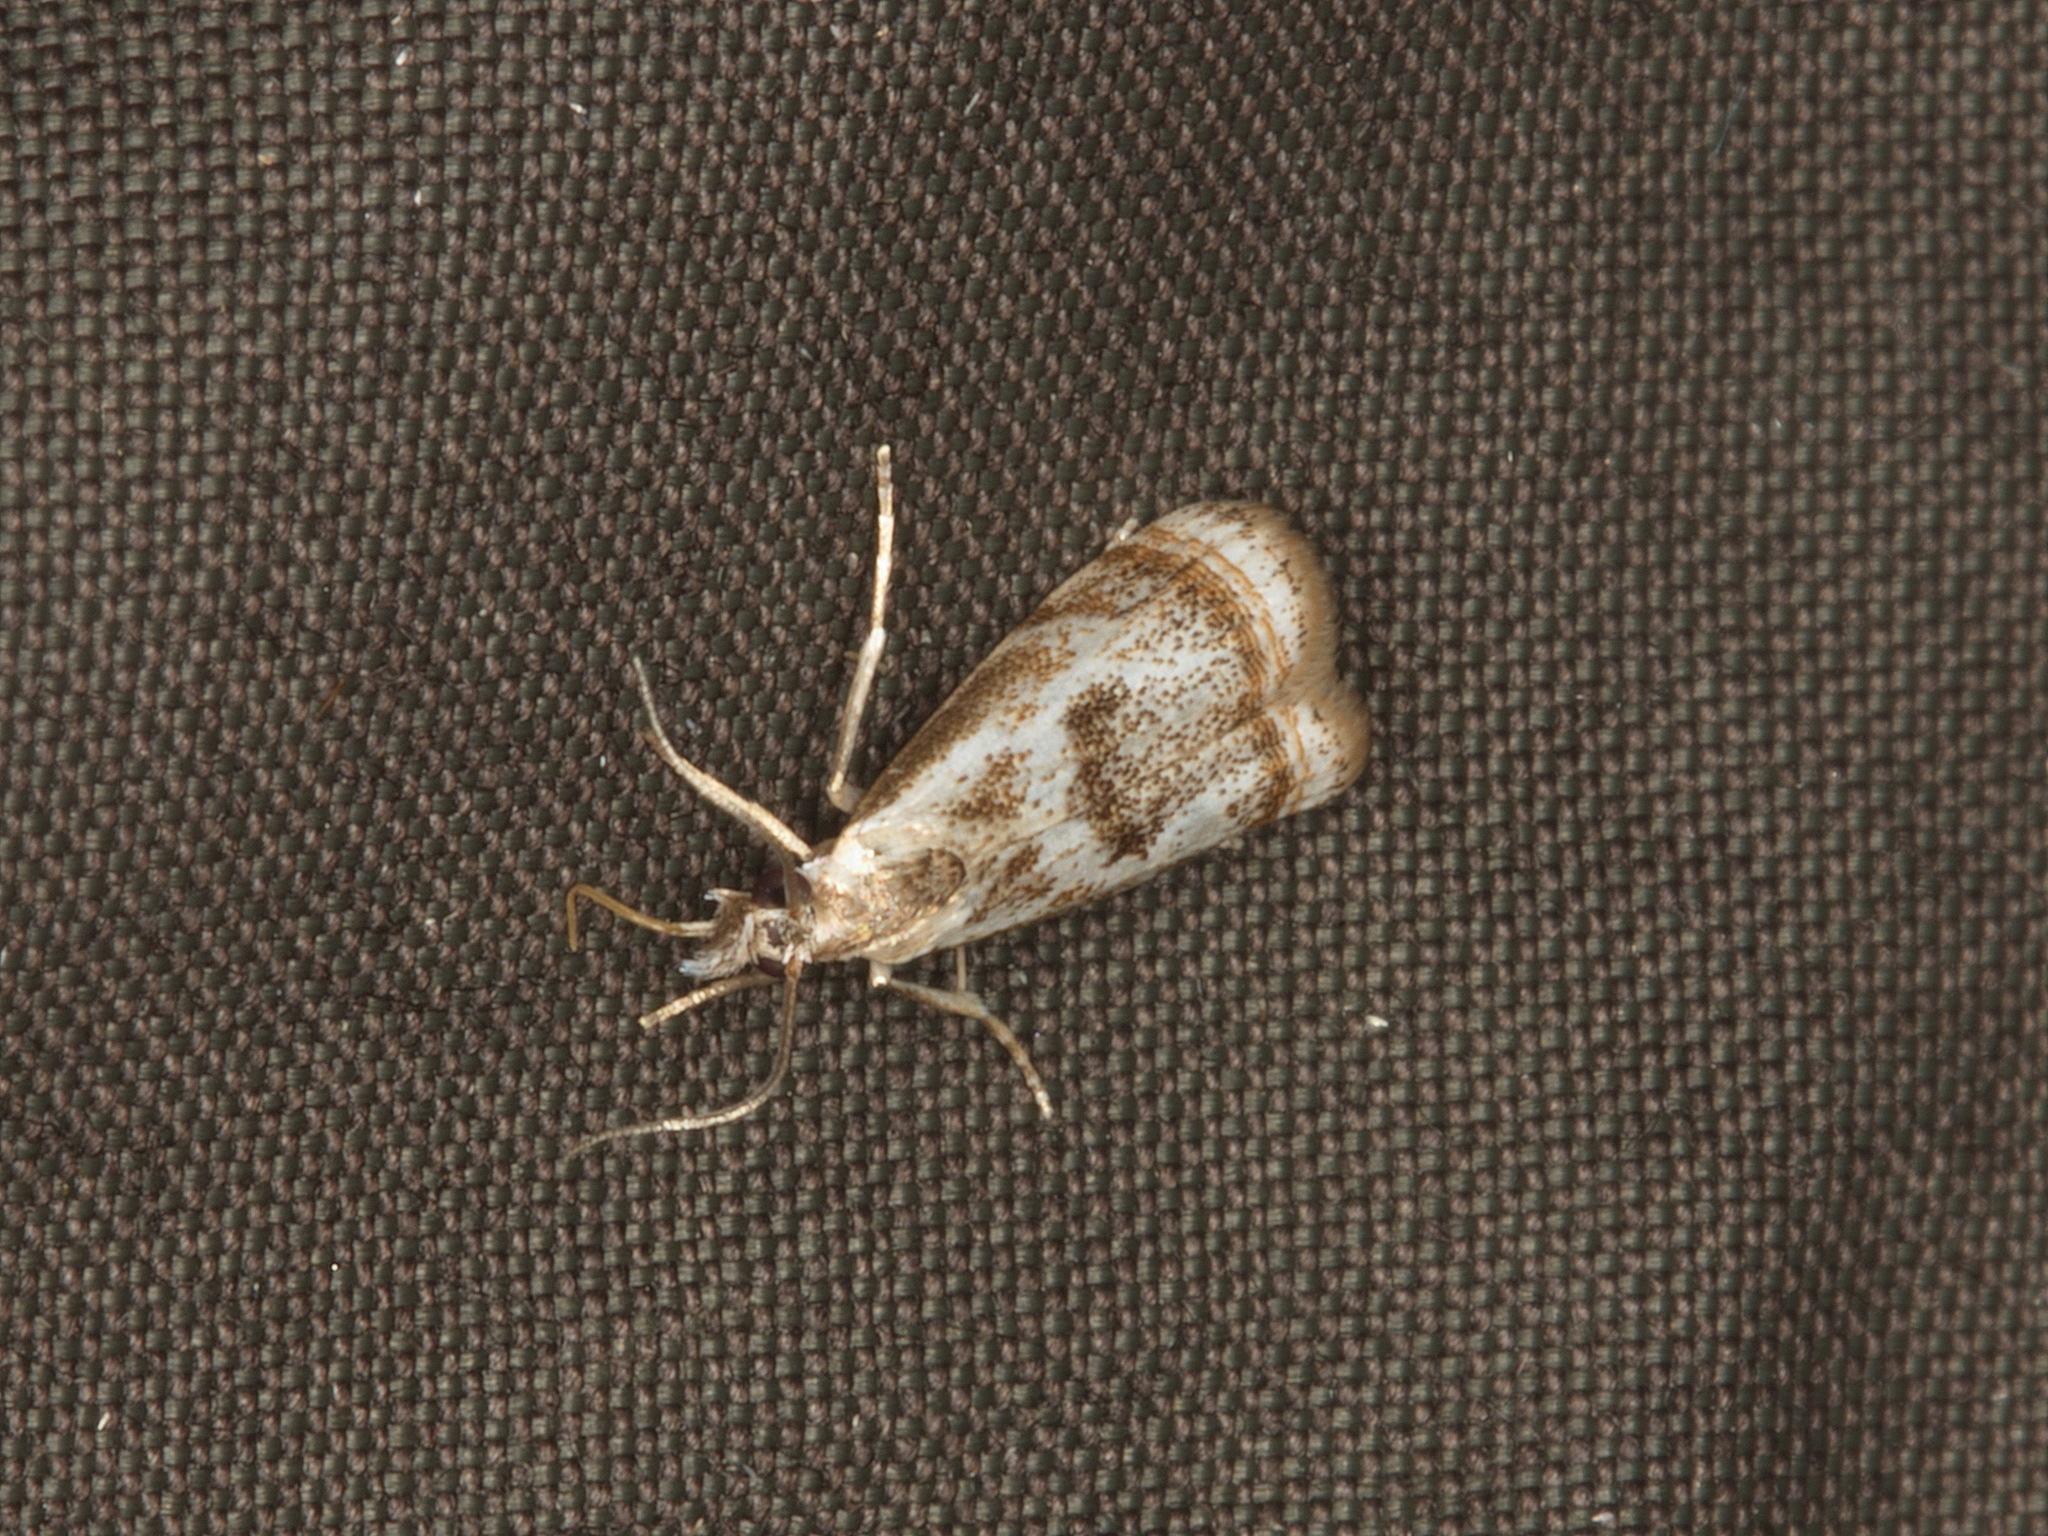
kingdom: Animalia
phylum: Arthropoda
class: Insecta
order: Lepidoptera
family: Crambidae
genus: Microcrambus
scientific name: Microcrambus elegans
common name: Elegant grass-veneer
